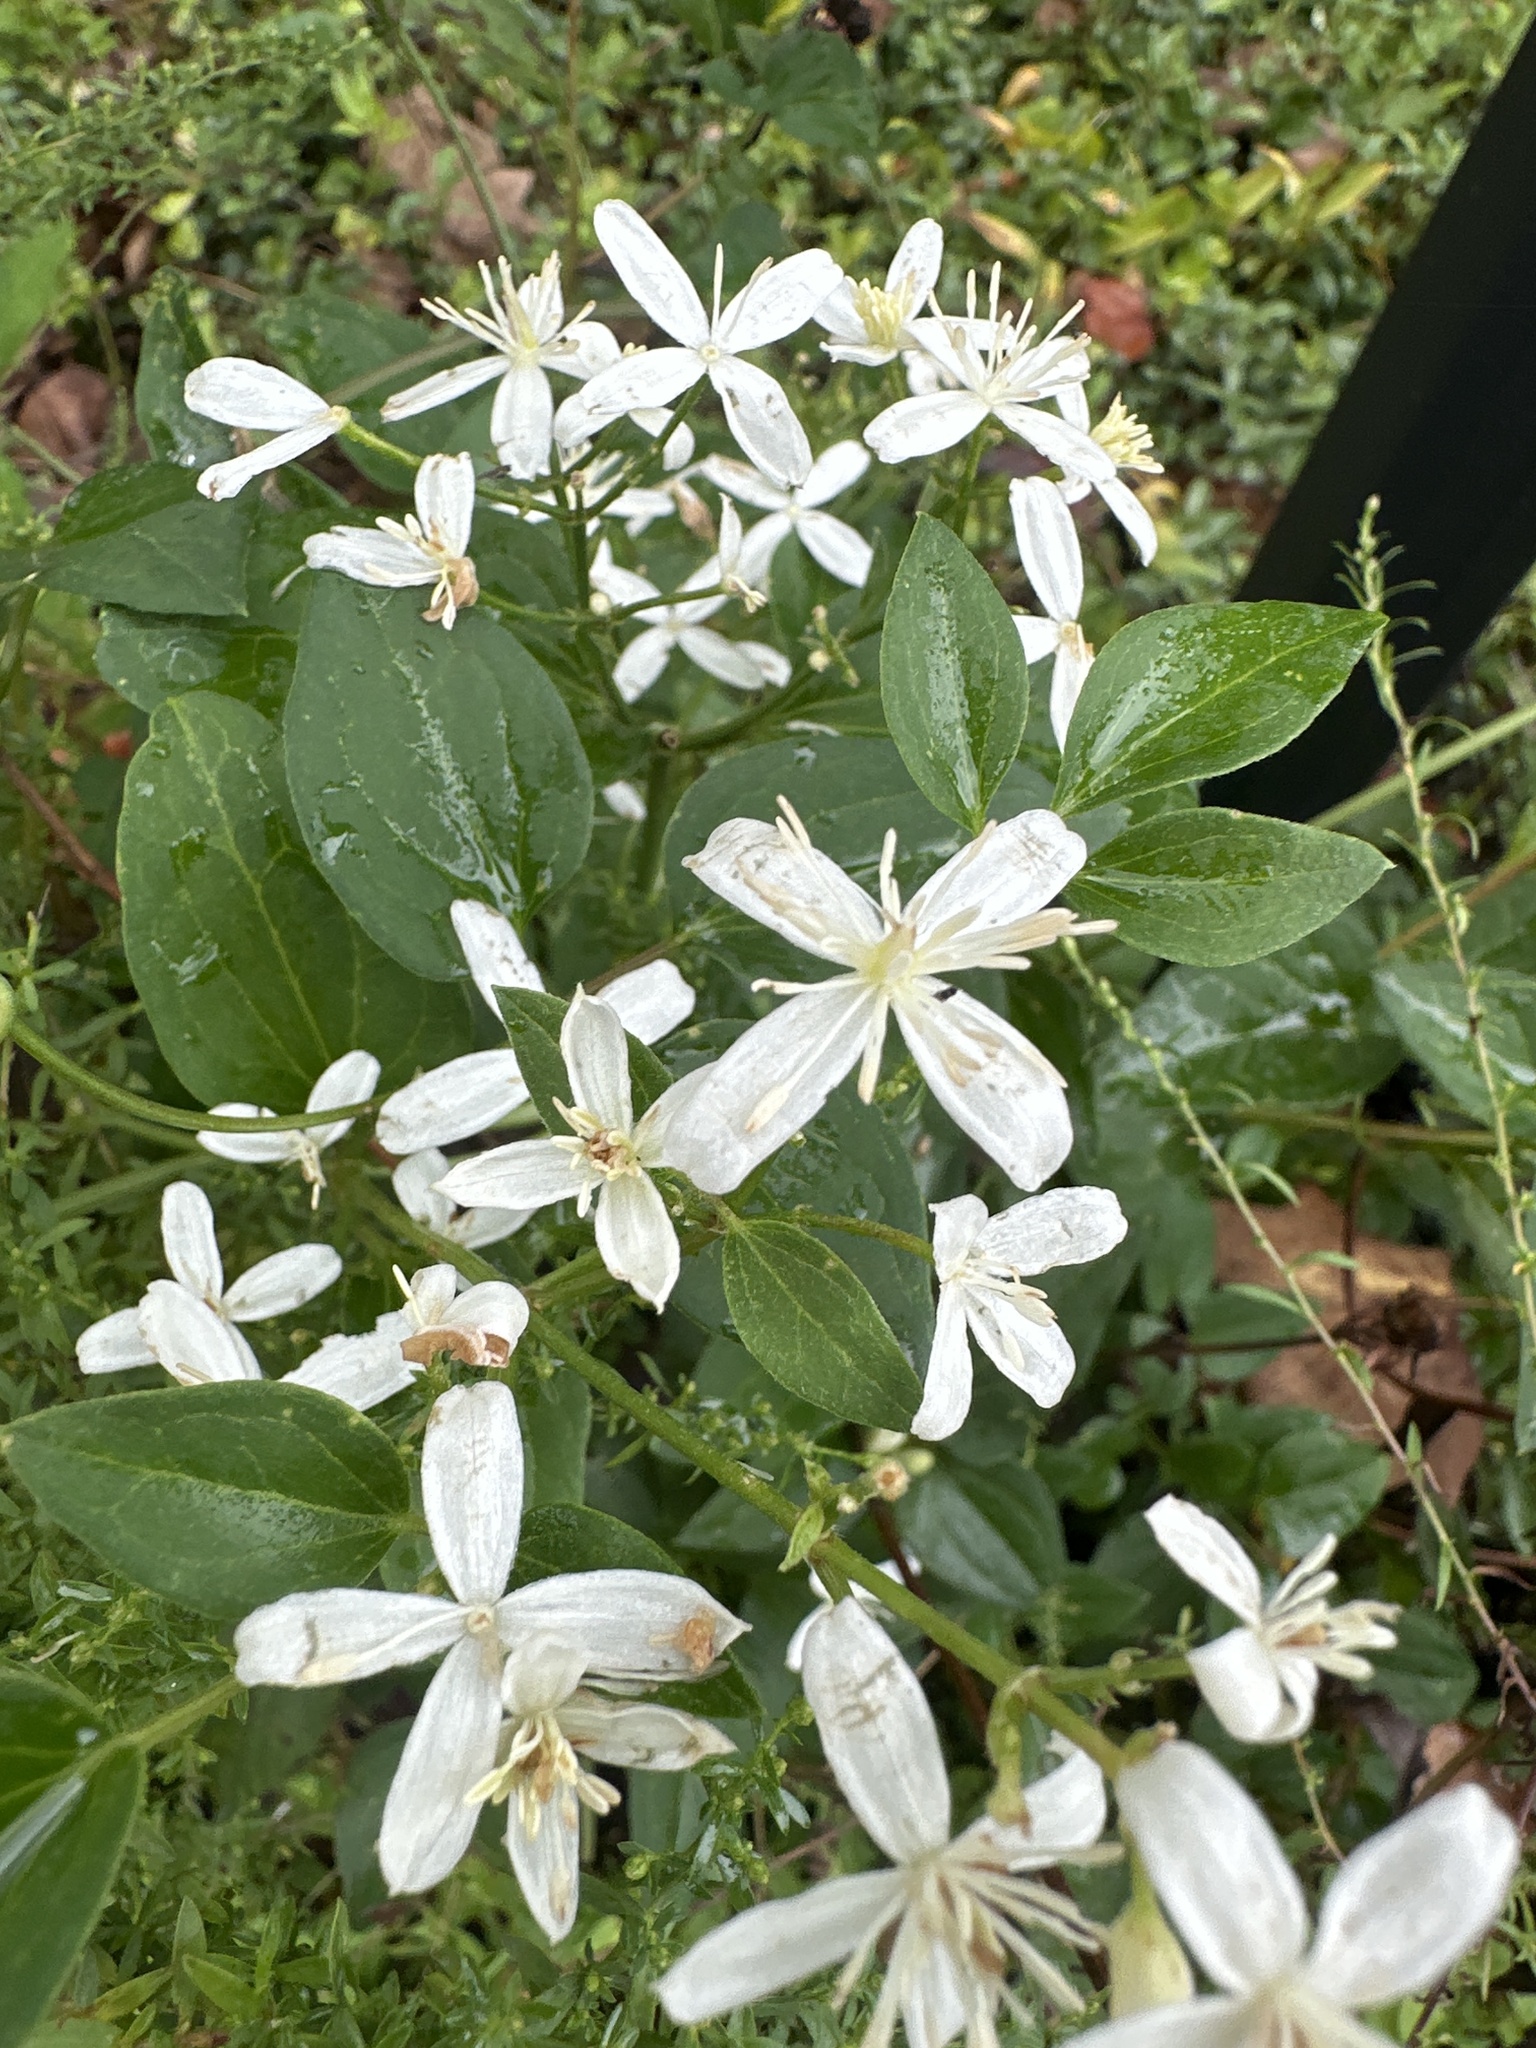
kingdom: Plantae
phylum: Tracheophyta
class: Magnoliopsida
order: Ranunculales
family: Ranunculaceae
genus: Clematis
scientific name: Clematis terniflora
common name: Sweet autumn clematis
